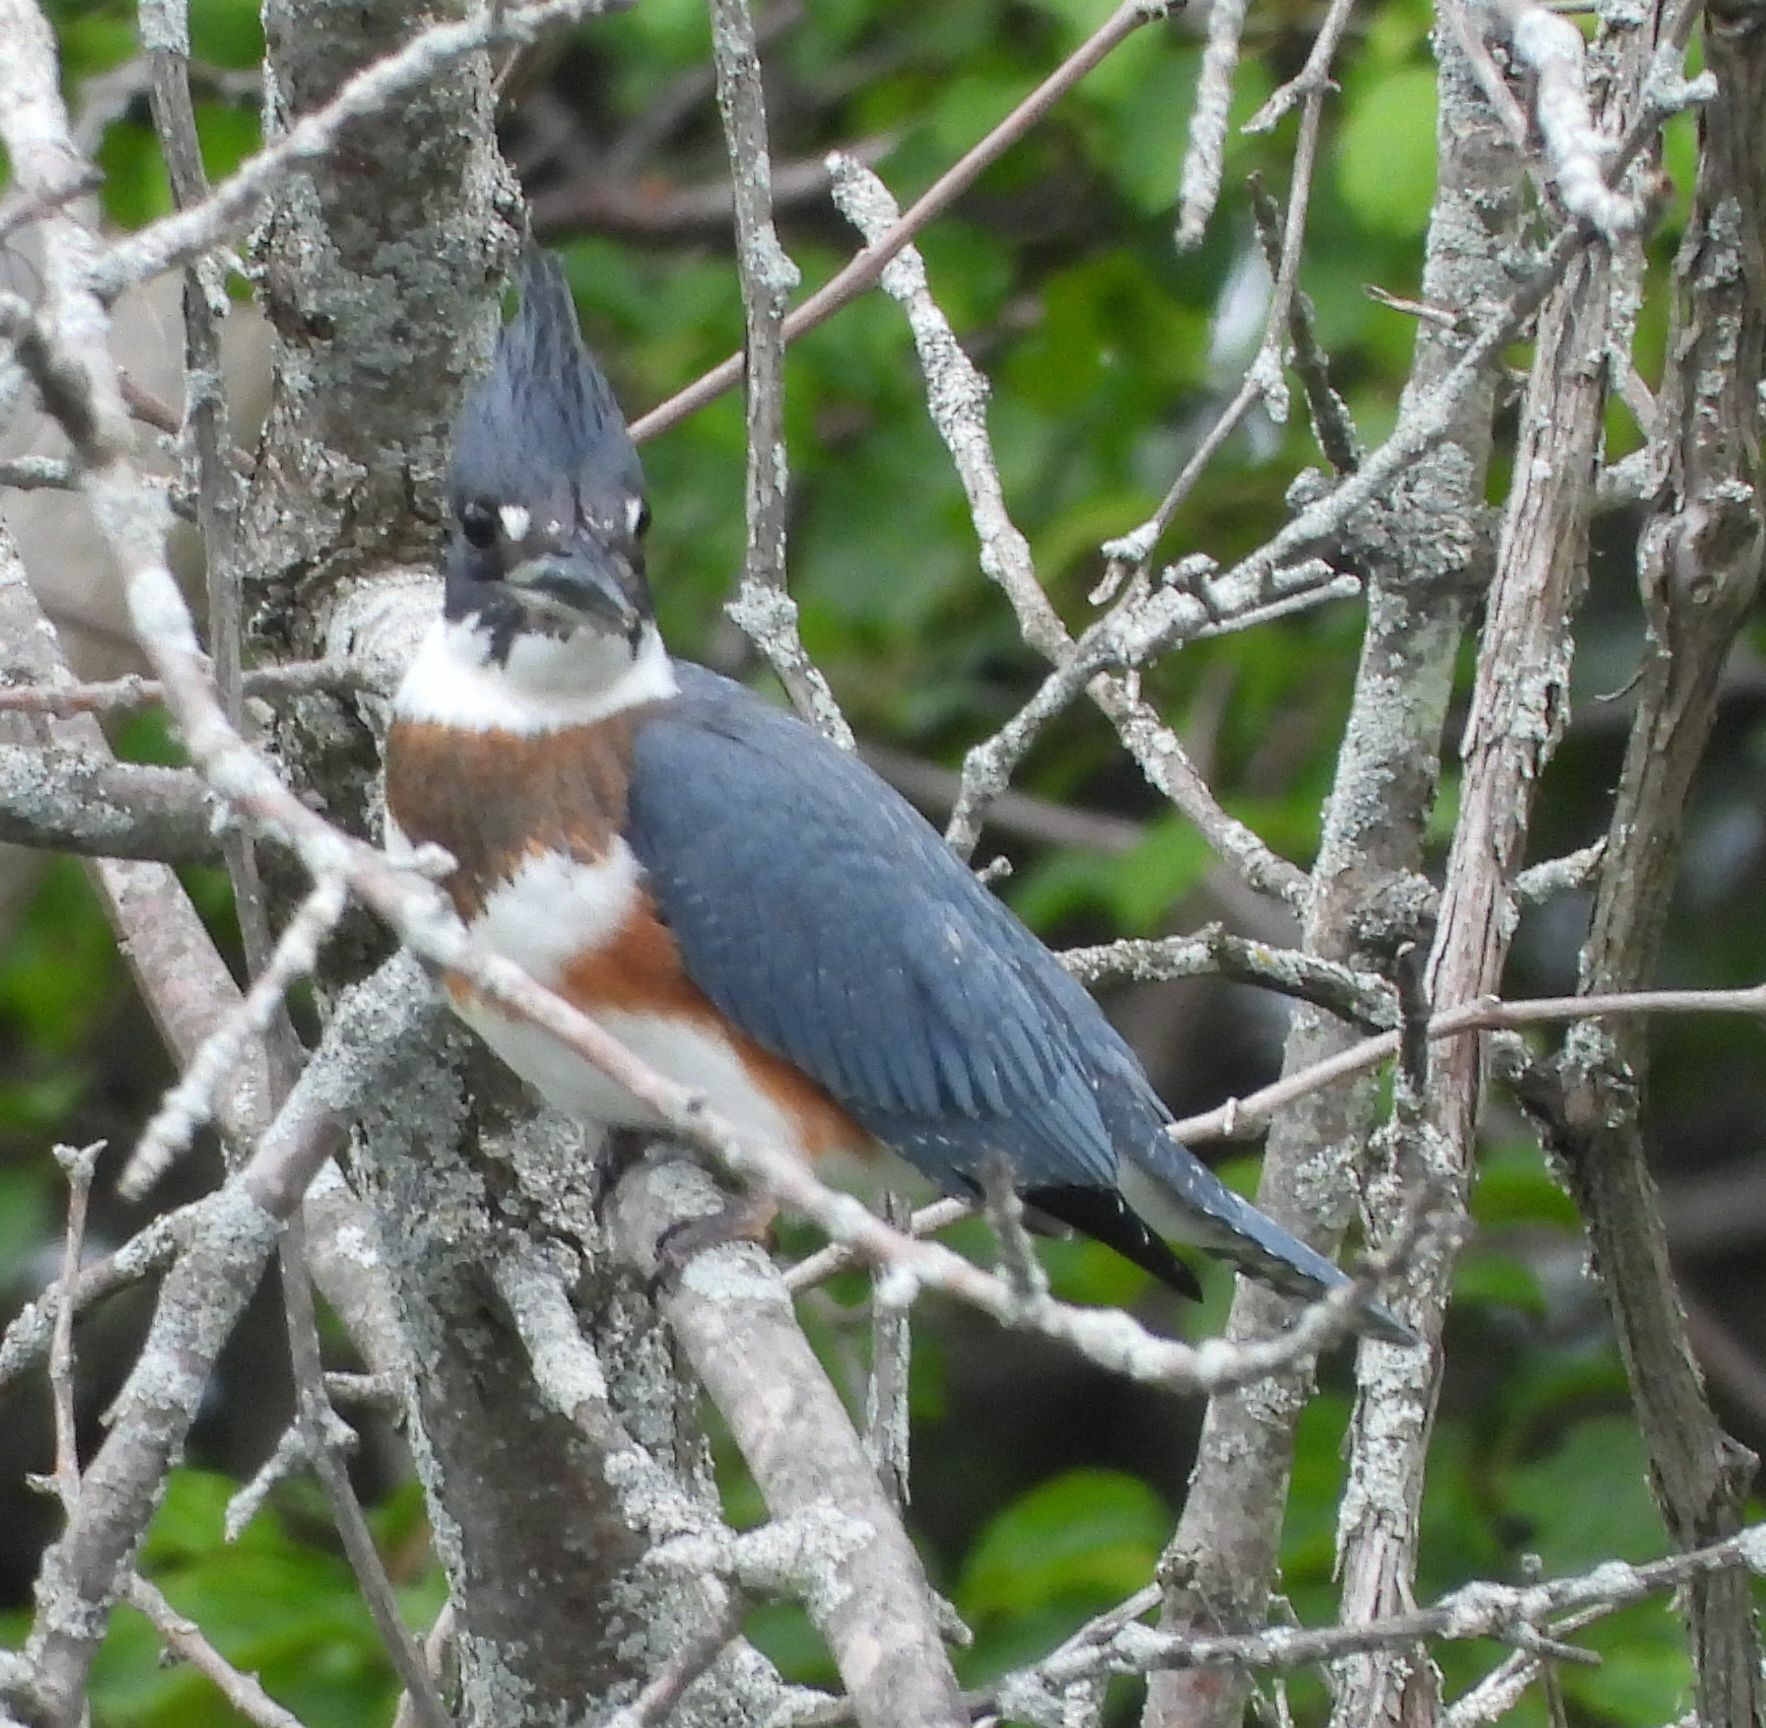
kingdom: Animalia
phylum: Chordata
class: Aves
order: Coraciiformes
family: Alcedinidae
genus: Megaceryle
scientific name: Megaceryle alcyon
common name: Belted kingfisher
